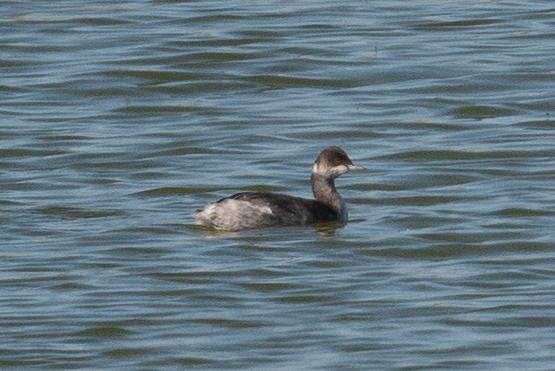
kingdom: Animalia
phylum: Chordata
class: Aves
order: Podicipediformes
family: Podicipedidae
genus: Podiceps
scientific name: Podiceps nigricollis
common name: Black-necked grebe
